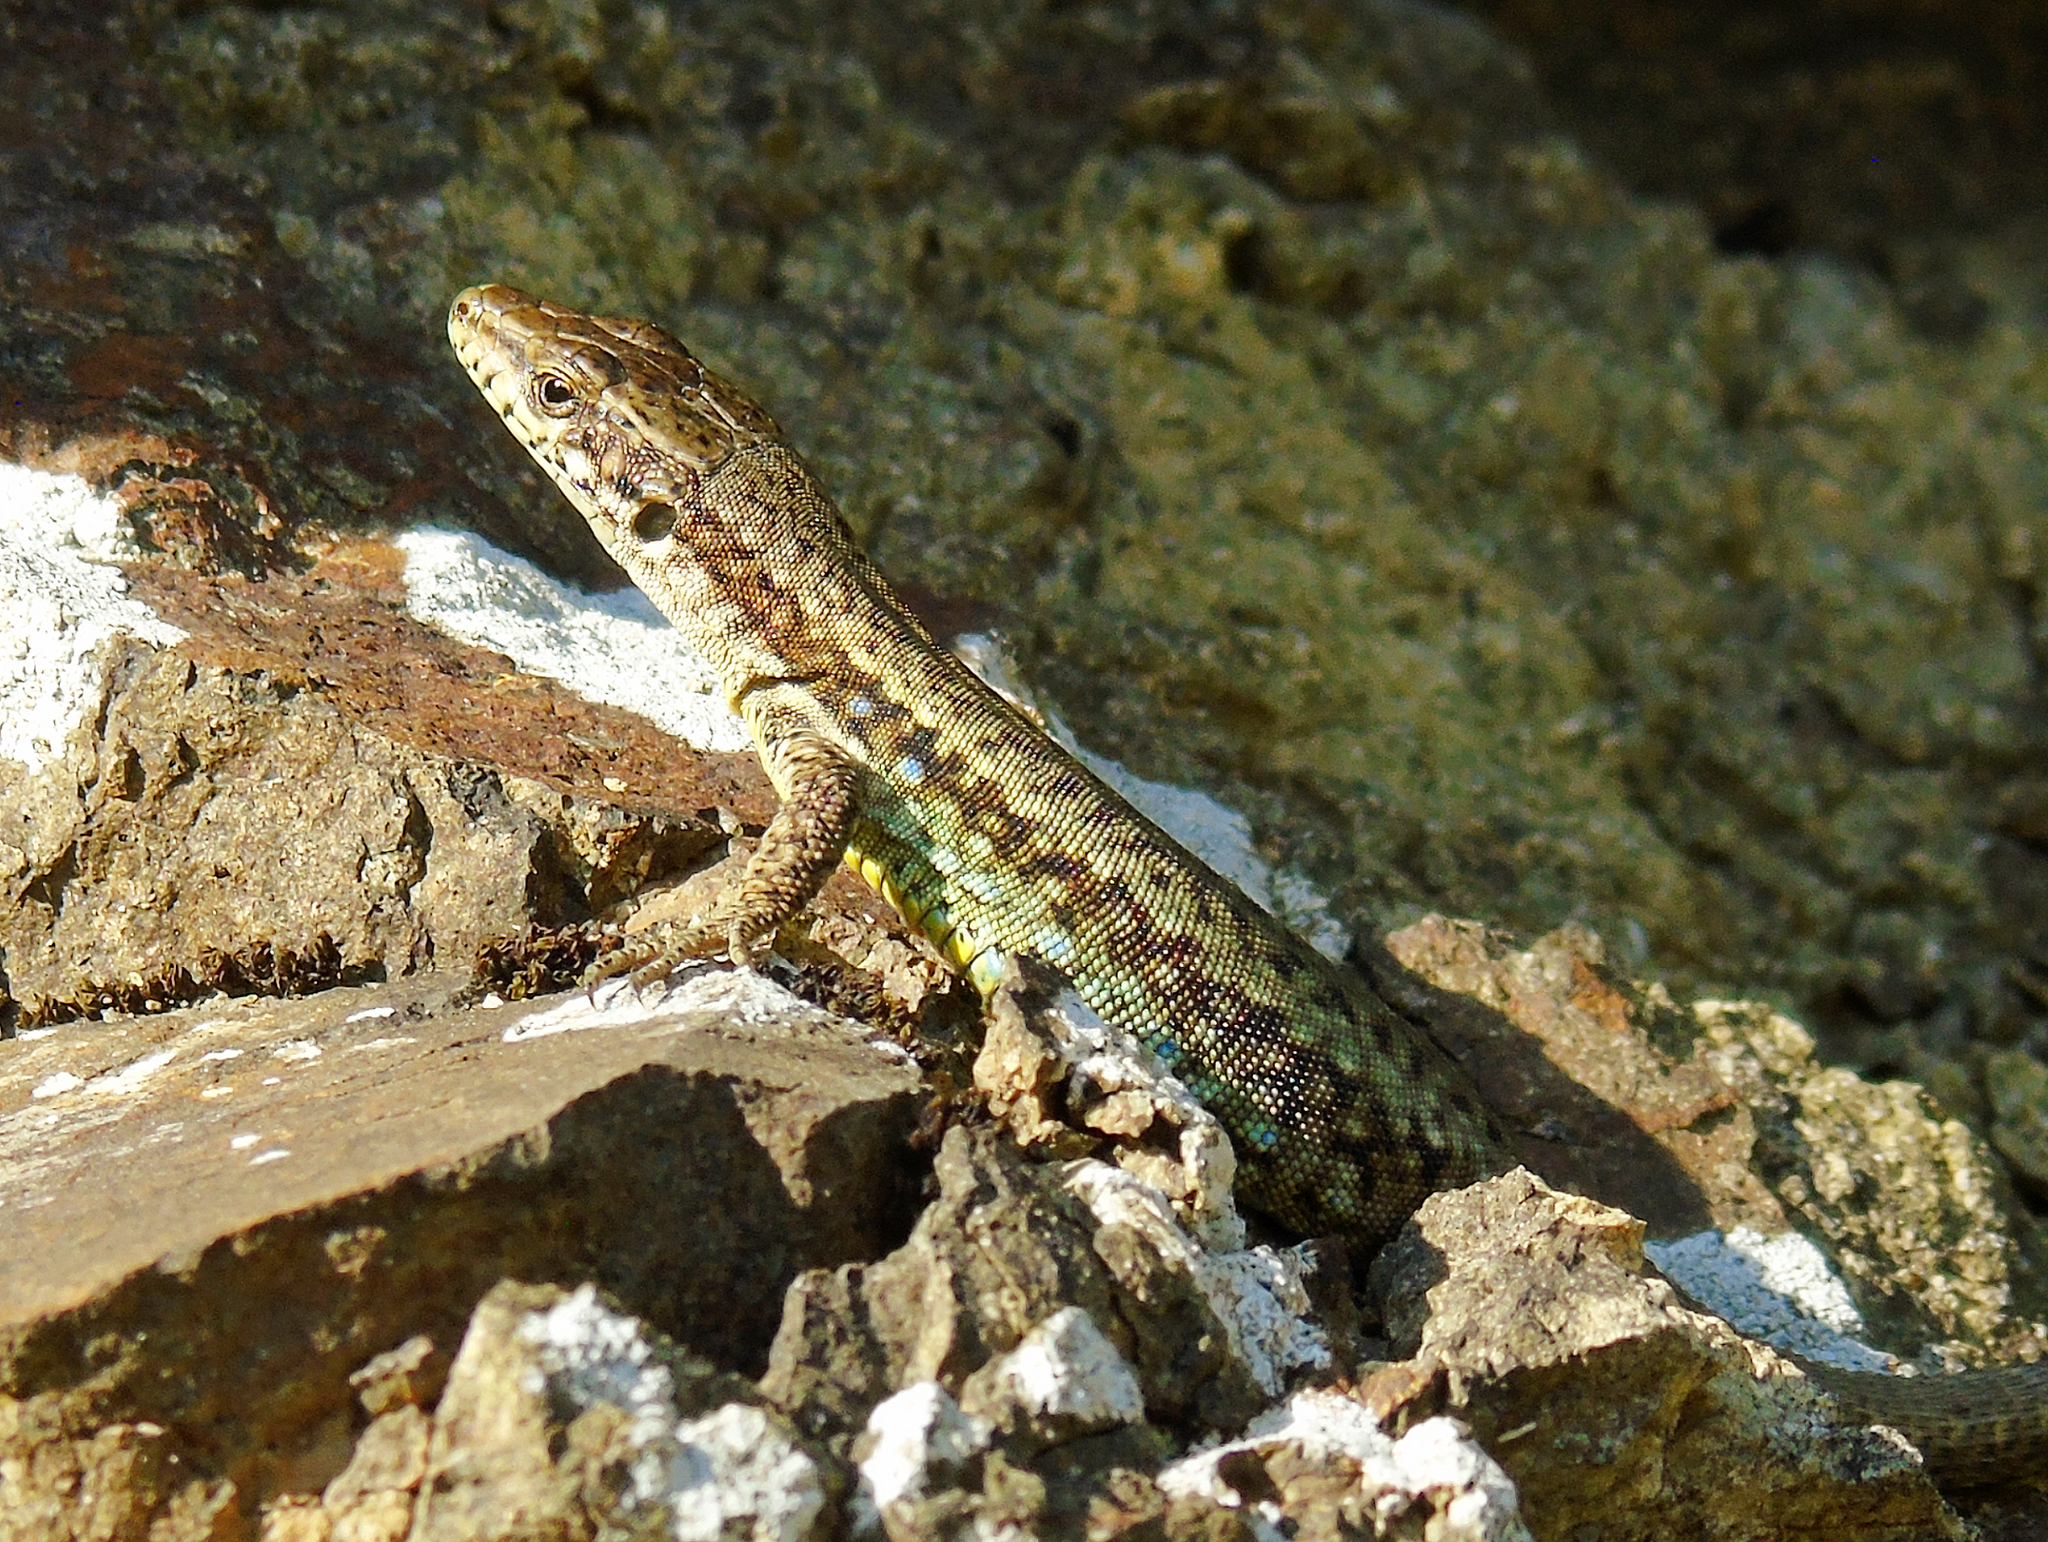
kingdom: Animalia
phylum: Chordata
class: Squamata
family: Lacertidae
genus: Darevskia
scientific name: Darevskia rudis
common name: Spiny-tailed lizard
